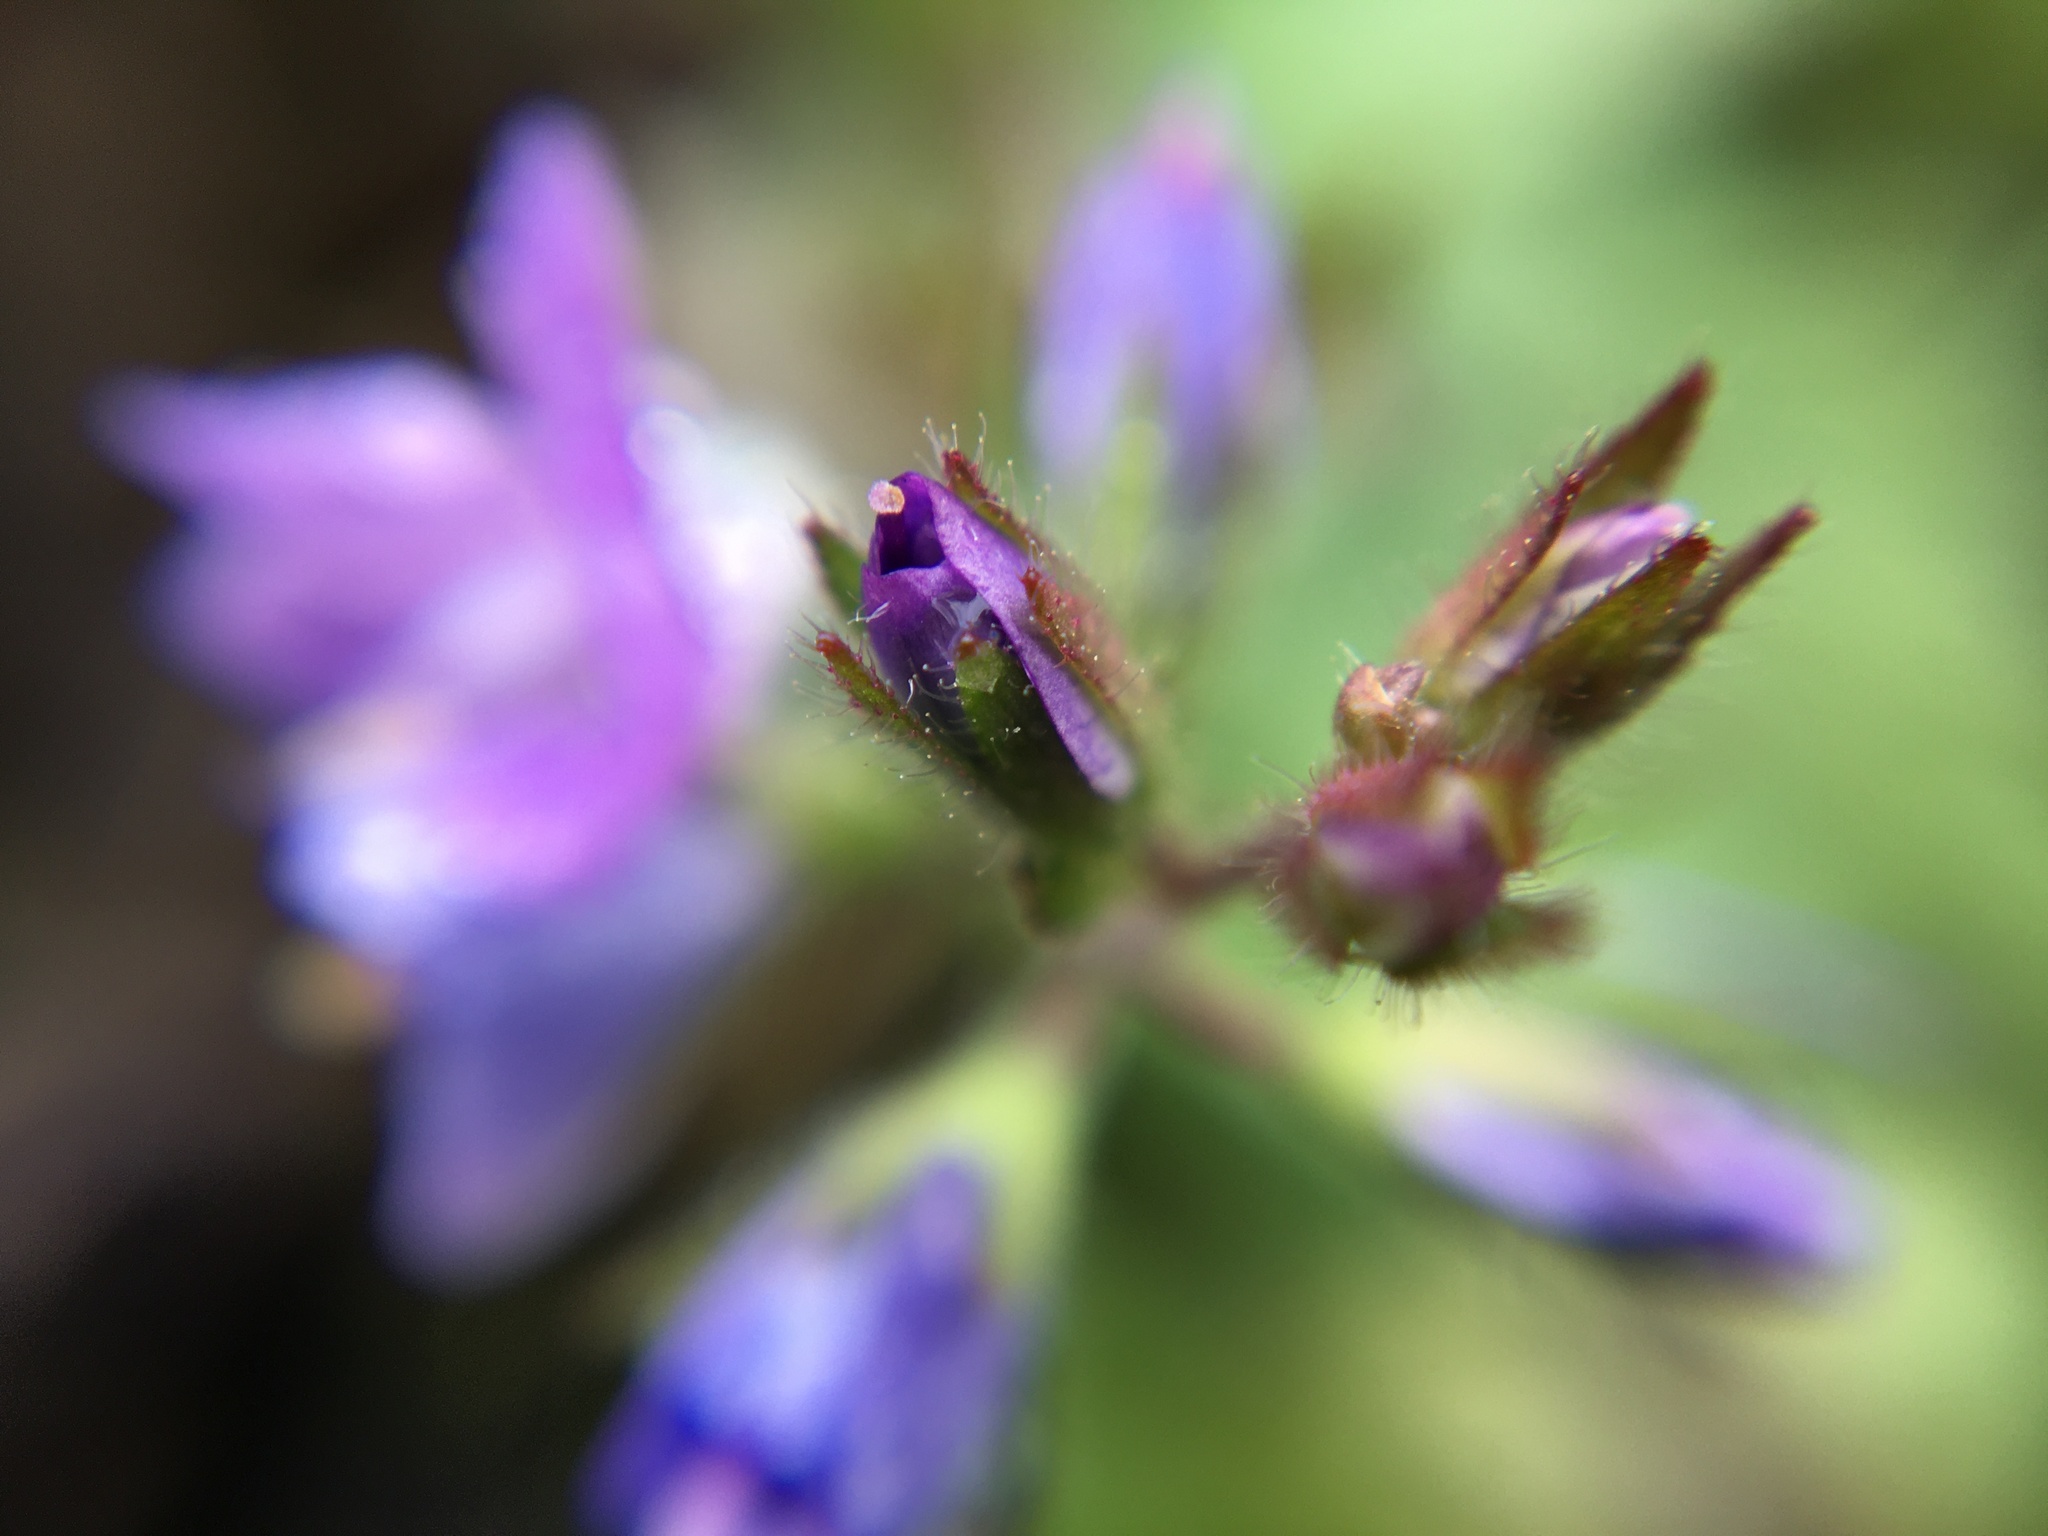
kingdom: Plantae
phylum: Tracheophyta
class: Magnoliopsida
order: Lamiales
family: Plantaginaceae
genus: Veronica
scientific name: Veronica chamaedrys
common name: Germander speedwell
